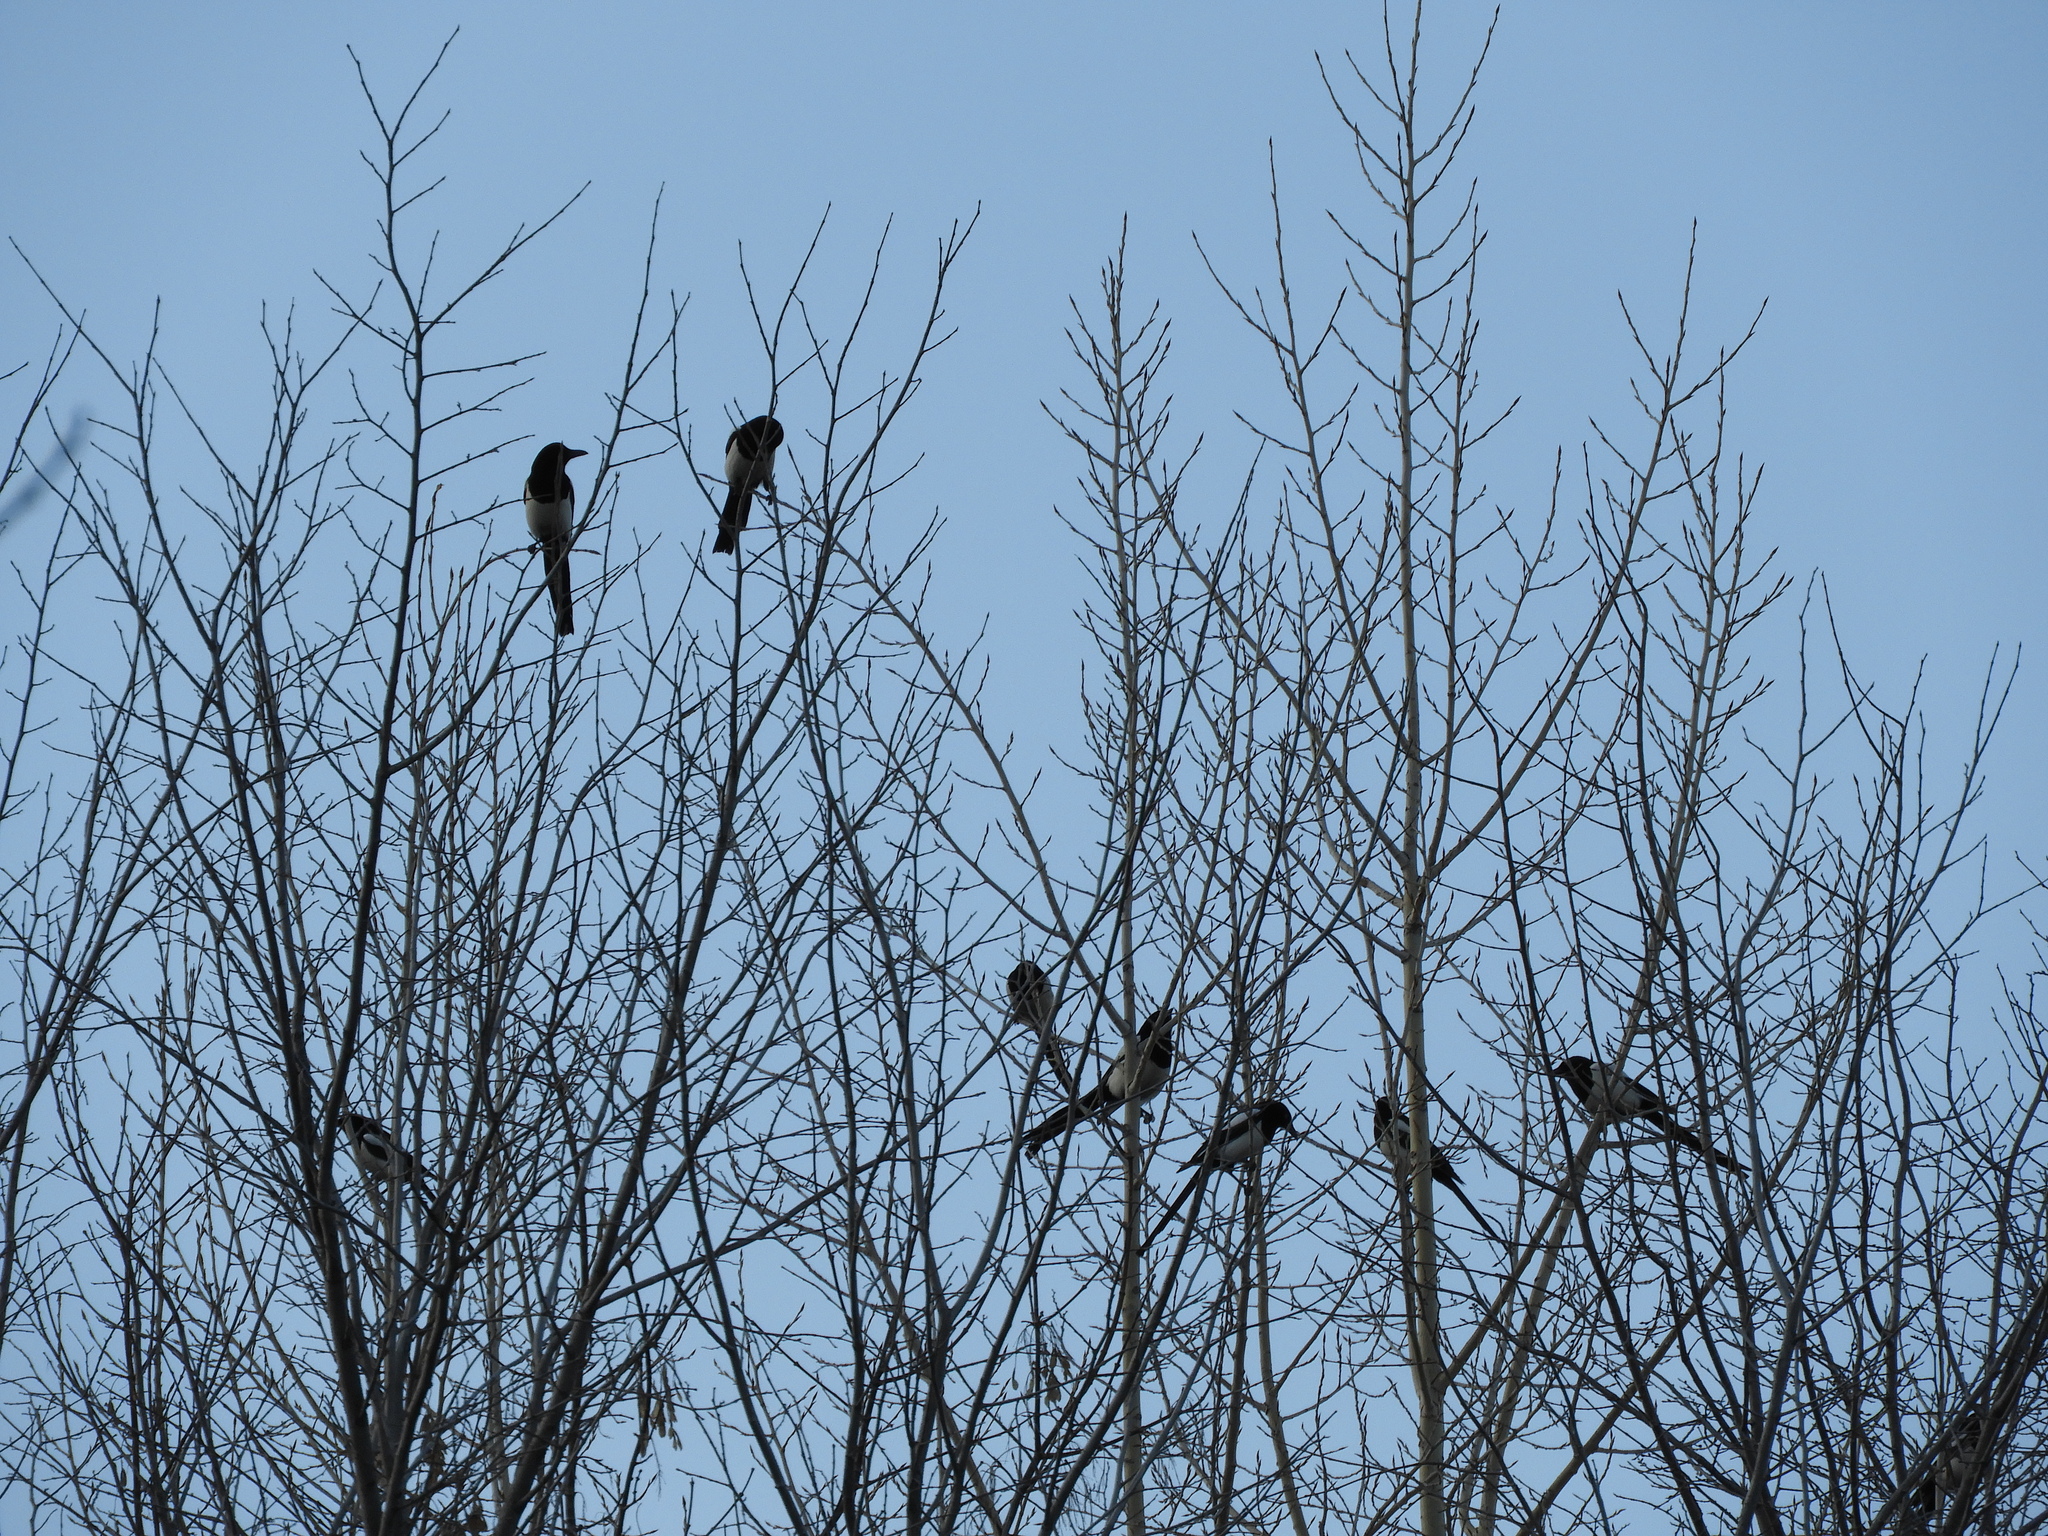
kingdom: Animalia
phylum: Chordata
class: Aves
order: Passeriformes
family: Corvidae
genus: Pica
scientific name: Pica pica
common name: Eurasian magpie
